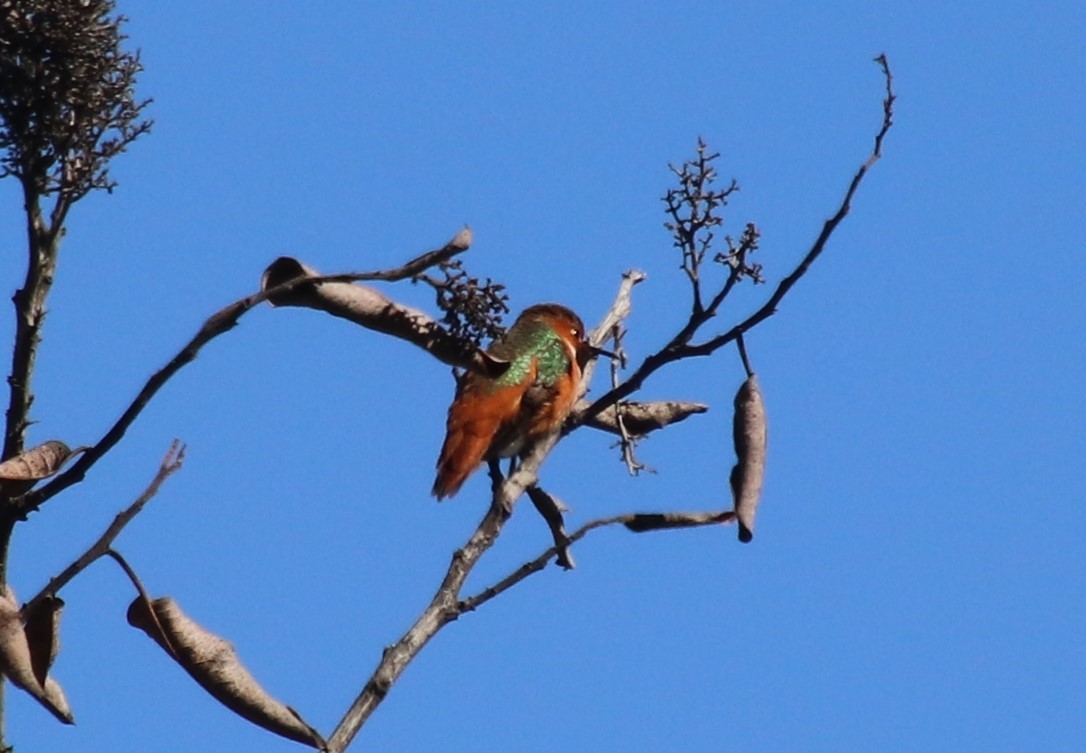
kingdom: Animalia
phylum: Chordata
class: Aves
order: Apodiformes
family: Trochilidae
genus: Selasphorus
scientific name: Selasphorus sasin
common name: Allen's hummingbird
